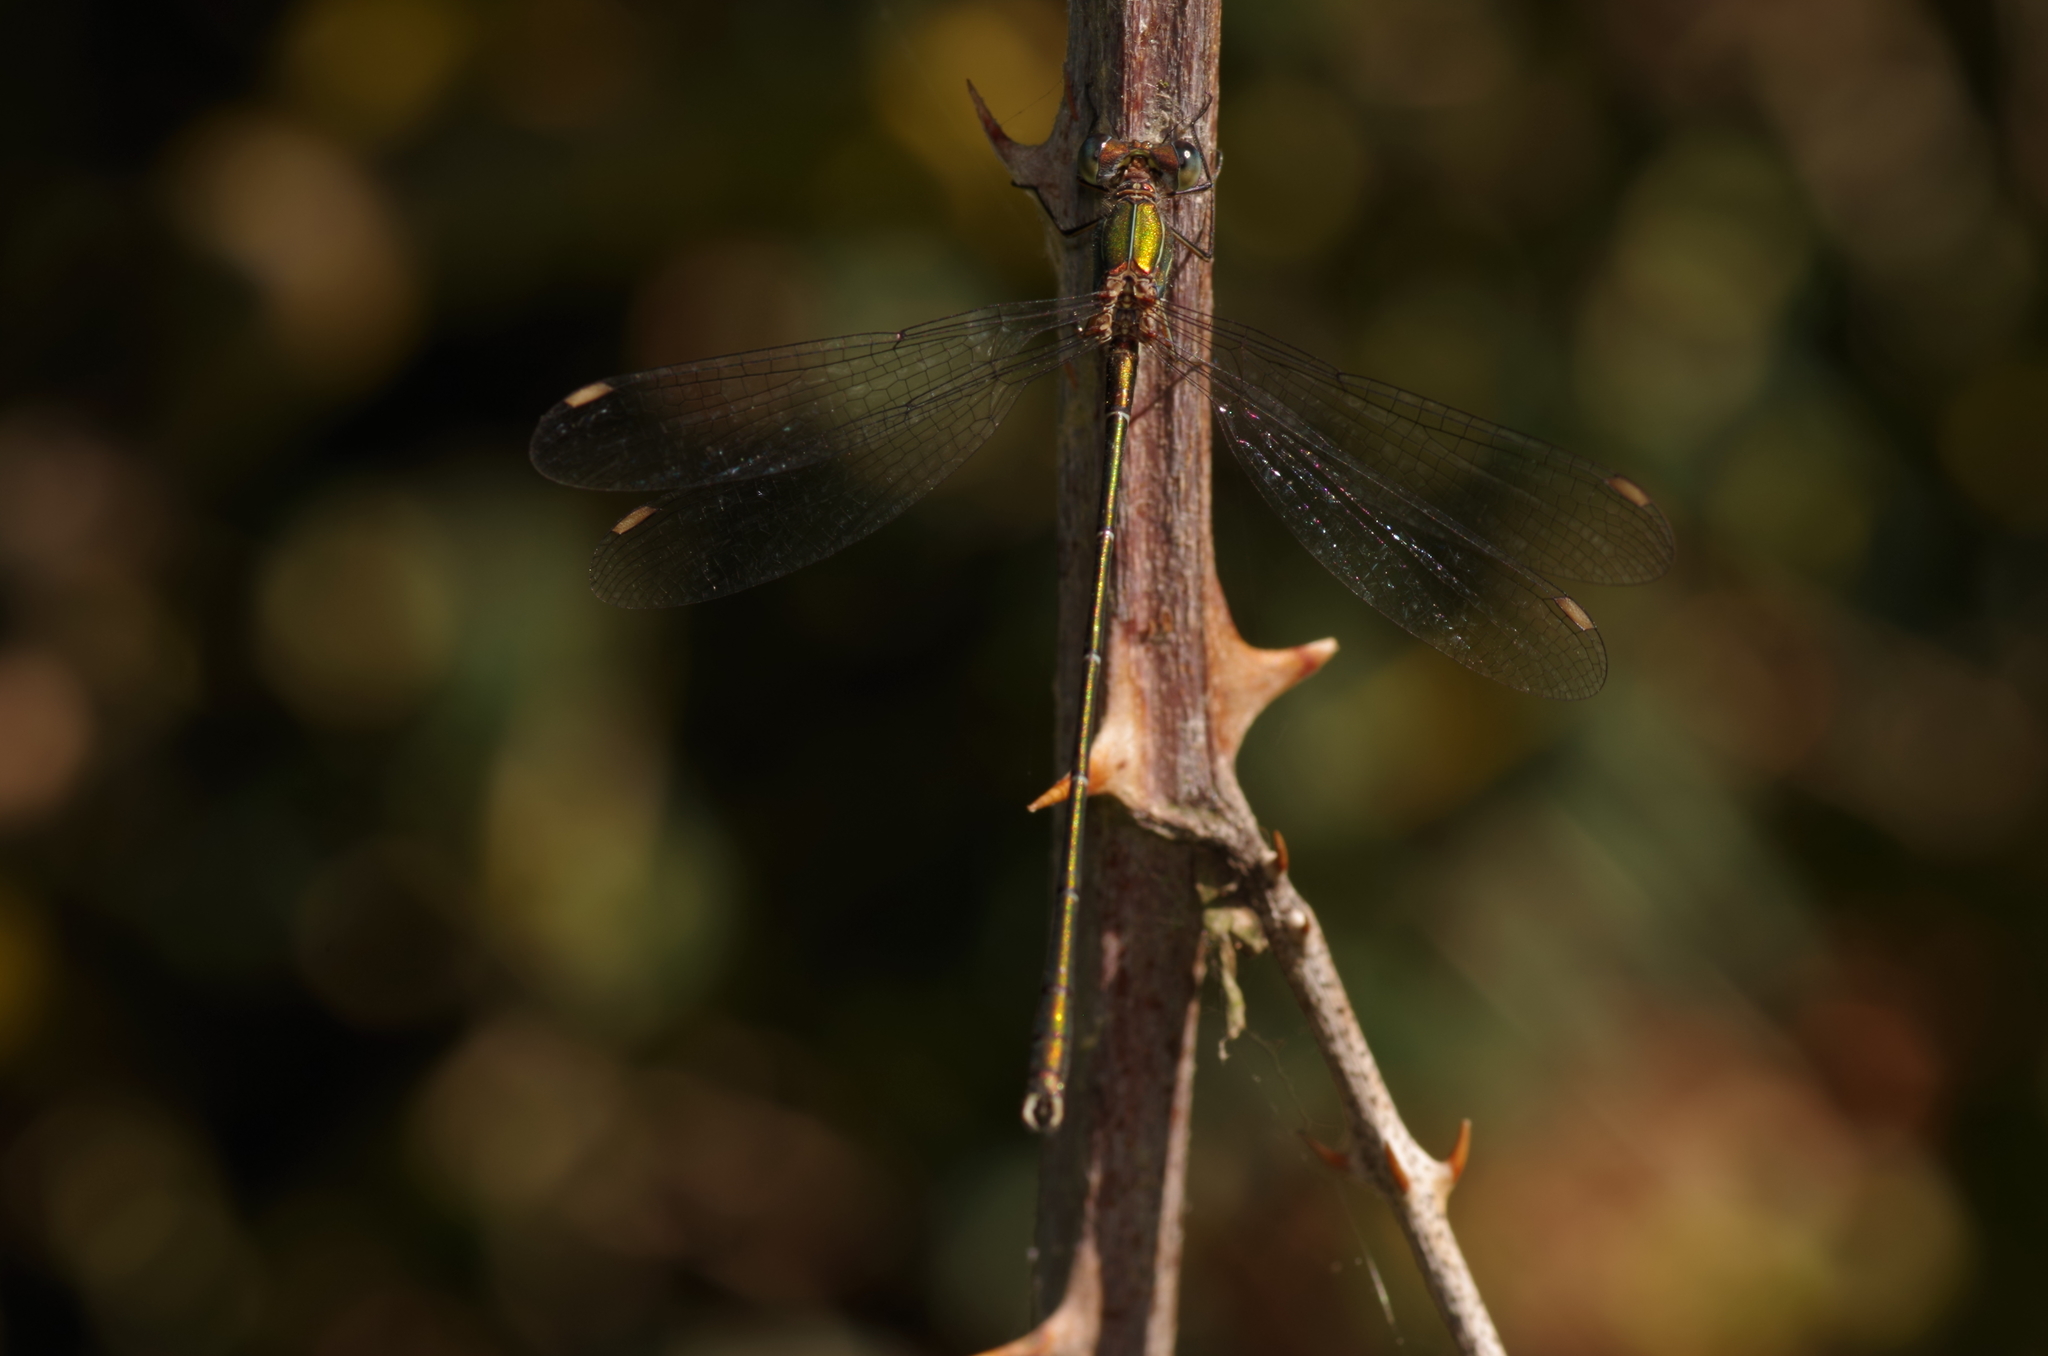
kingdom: Animalia
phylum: Arthropoda
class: Insecta
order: Odonata
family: Lestidae
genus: Chalcolestes
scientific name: Chalcolestes viridis
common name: Green emerald damselfly
